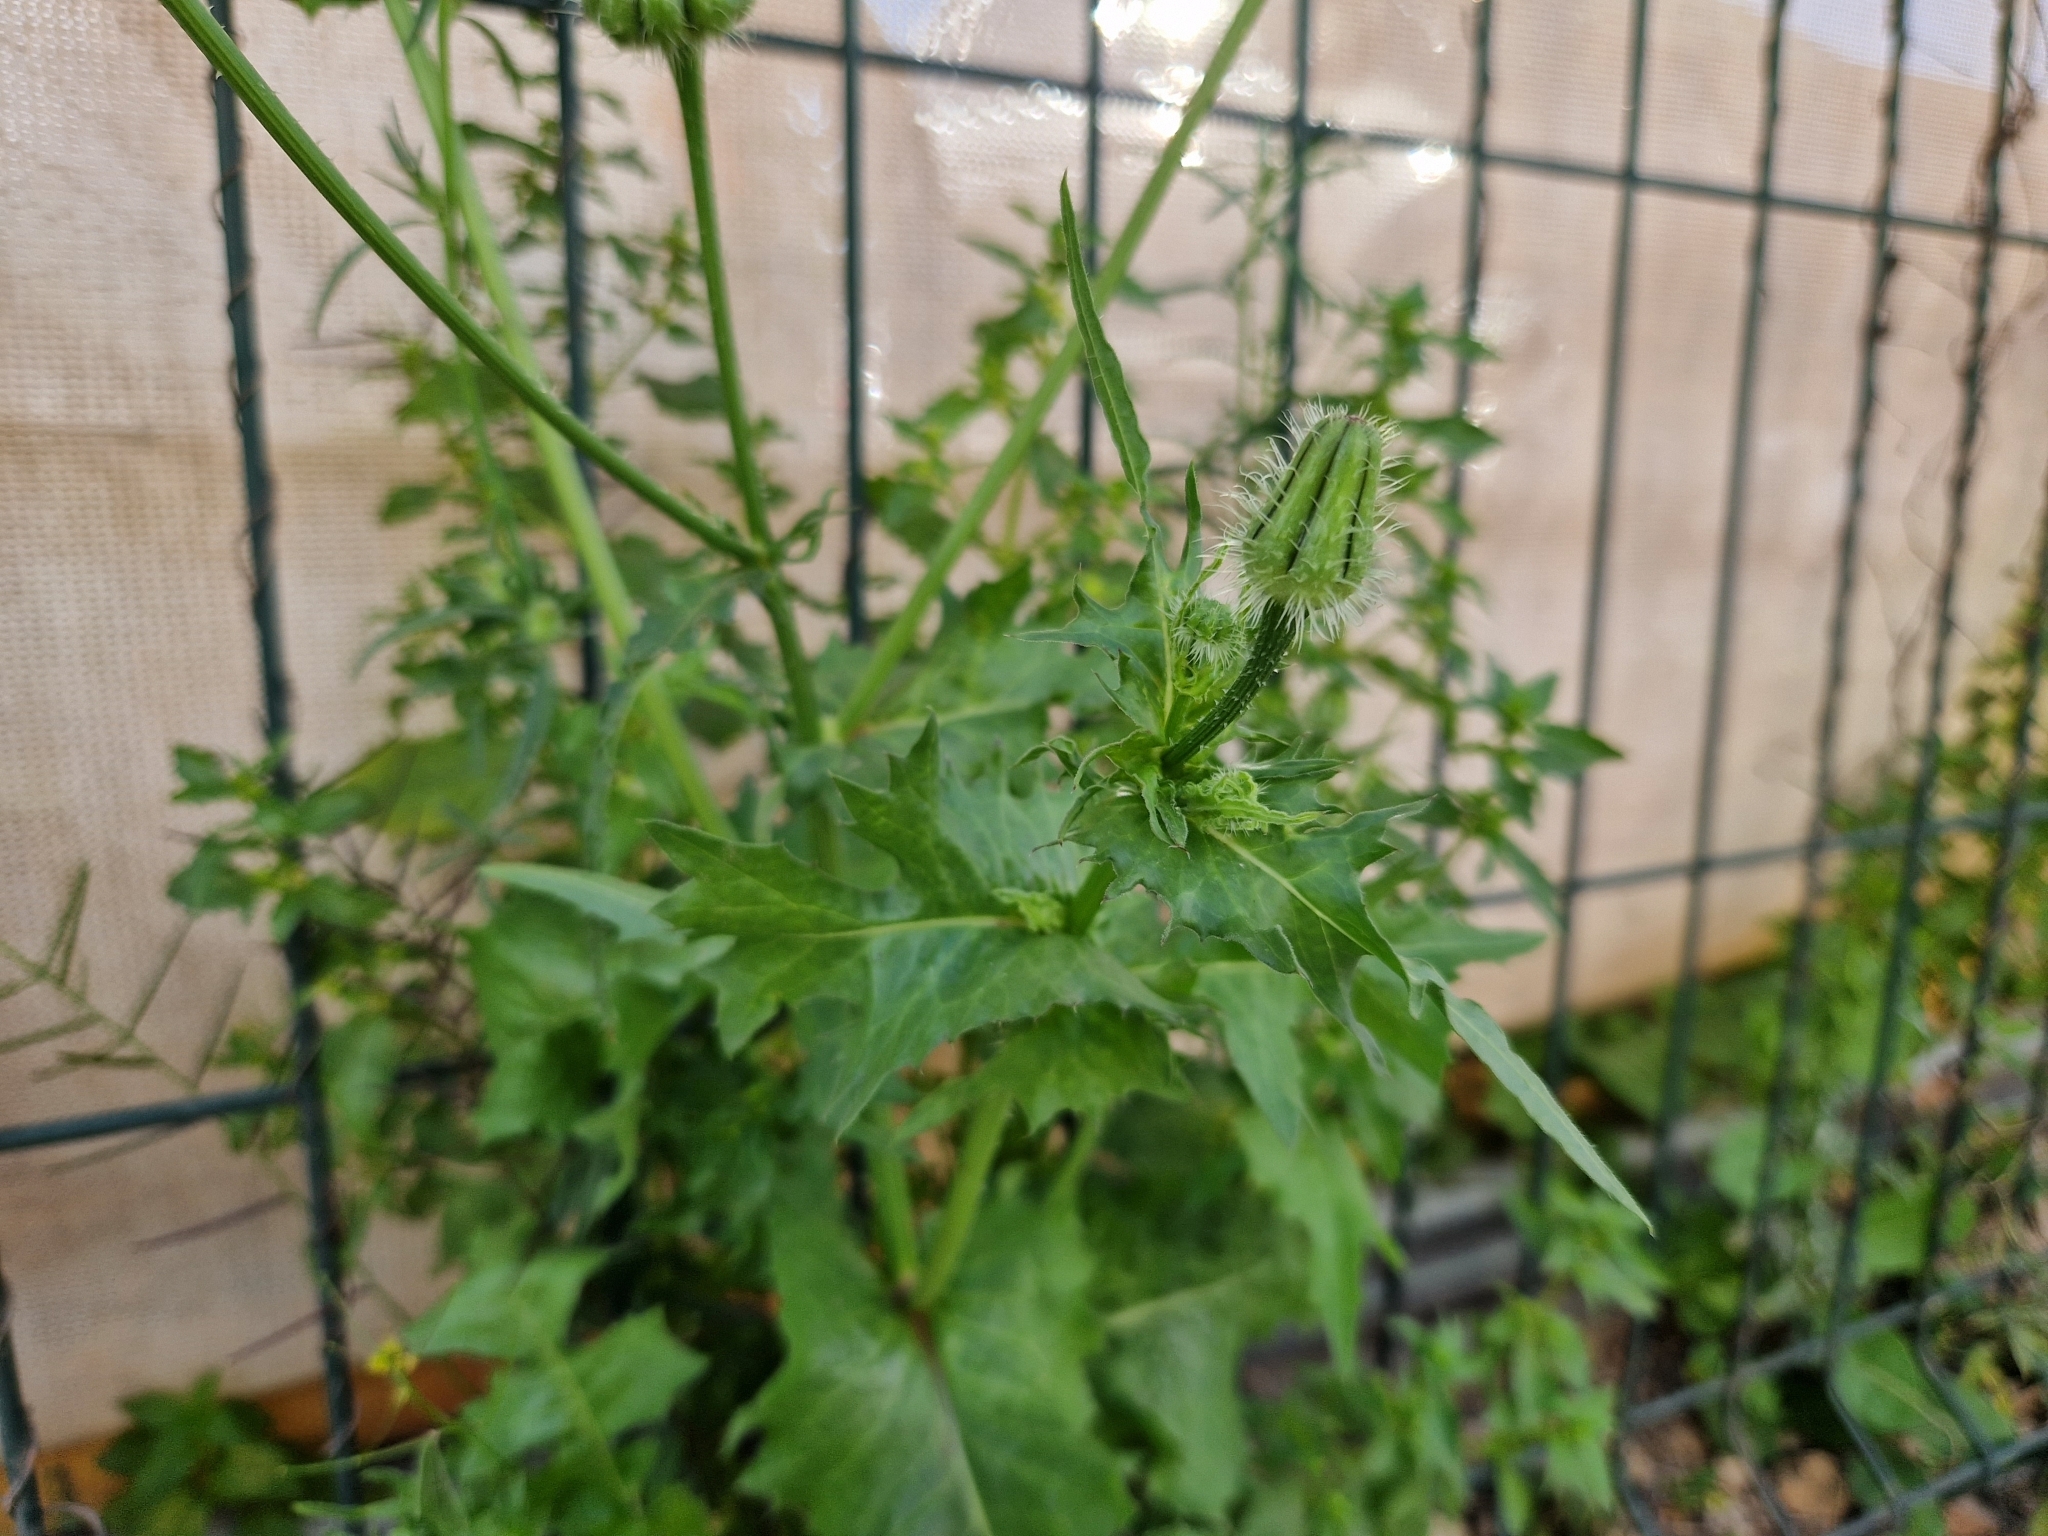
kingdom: Plantae
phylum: Tracheophyta
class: Magnoliopsida
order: Asterales
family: Asteraceae
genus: Urospermum
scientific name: Urospermum picroides
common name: False hawkbit
